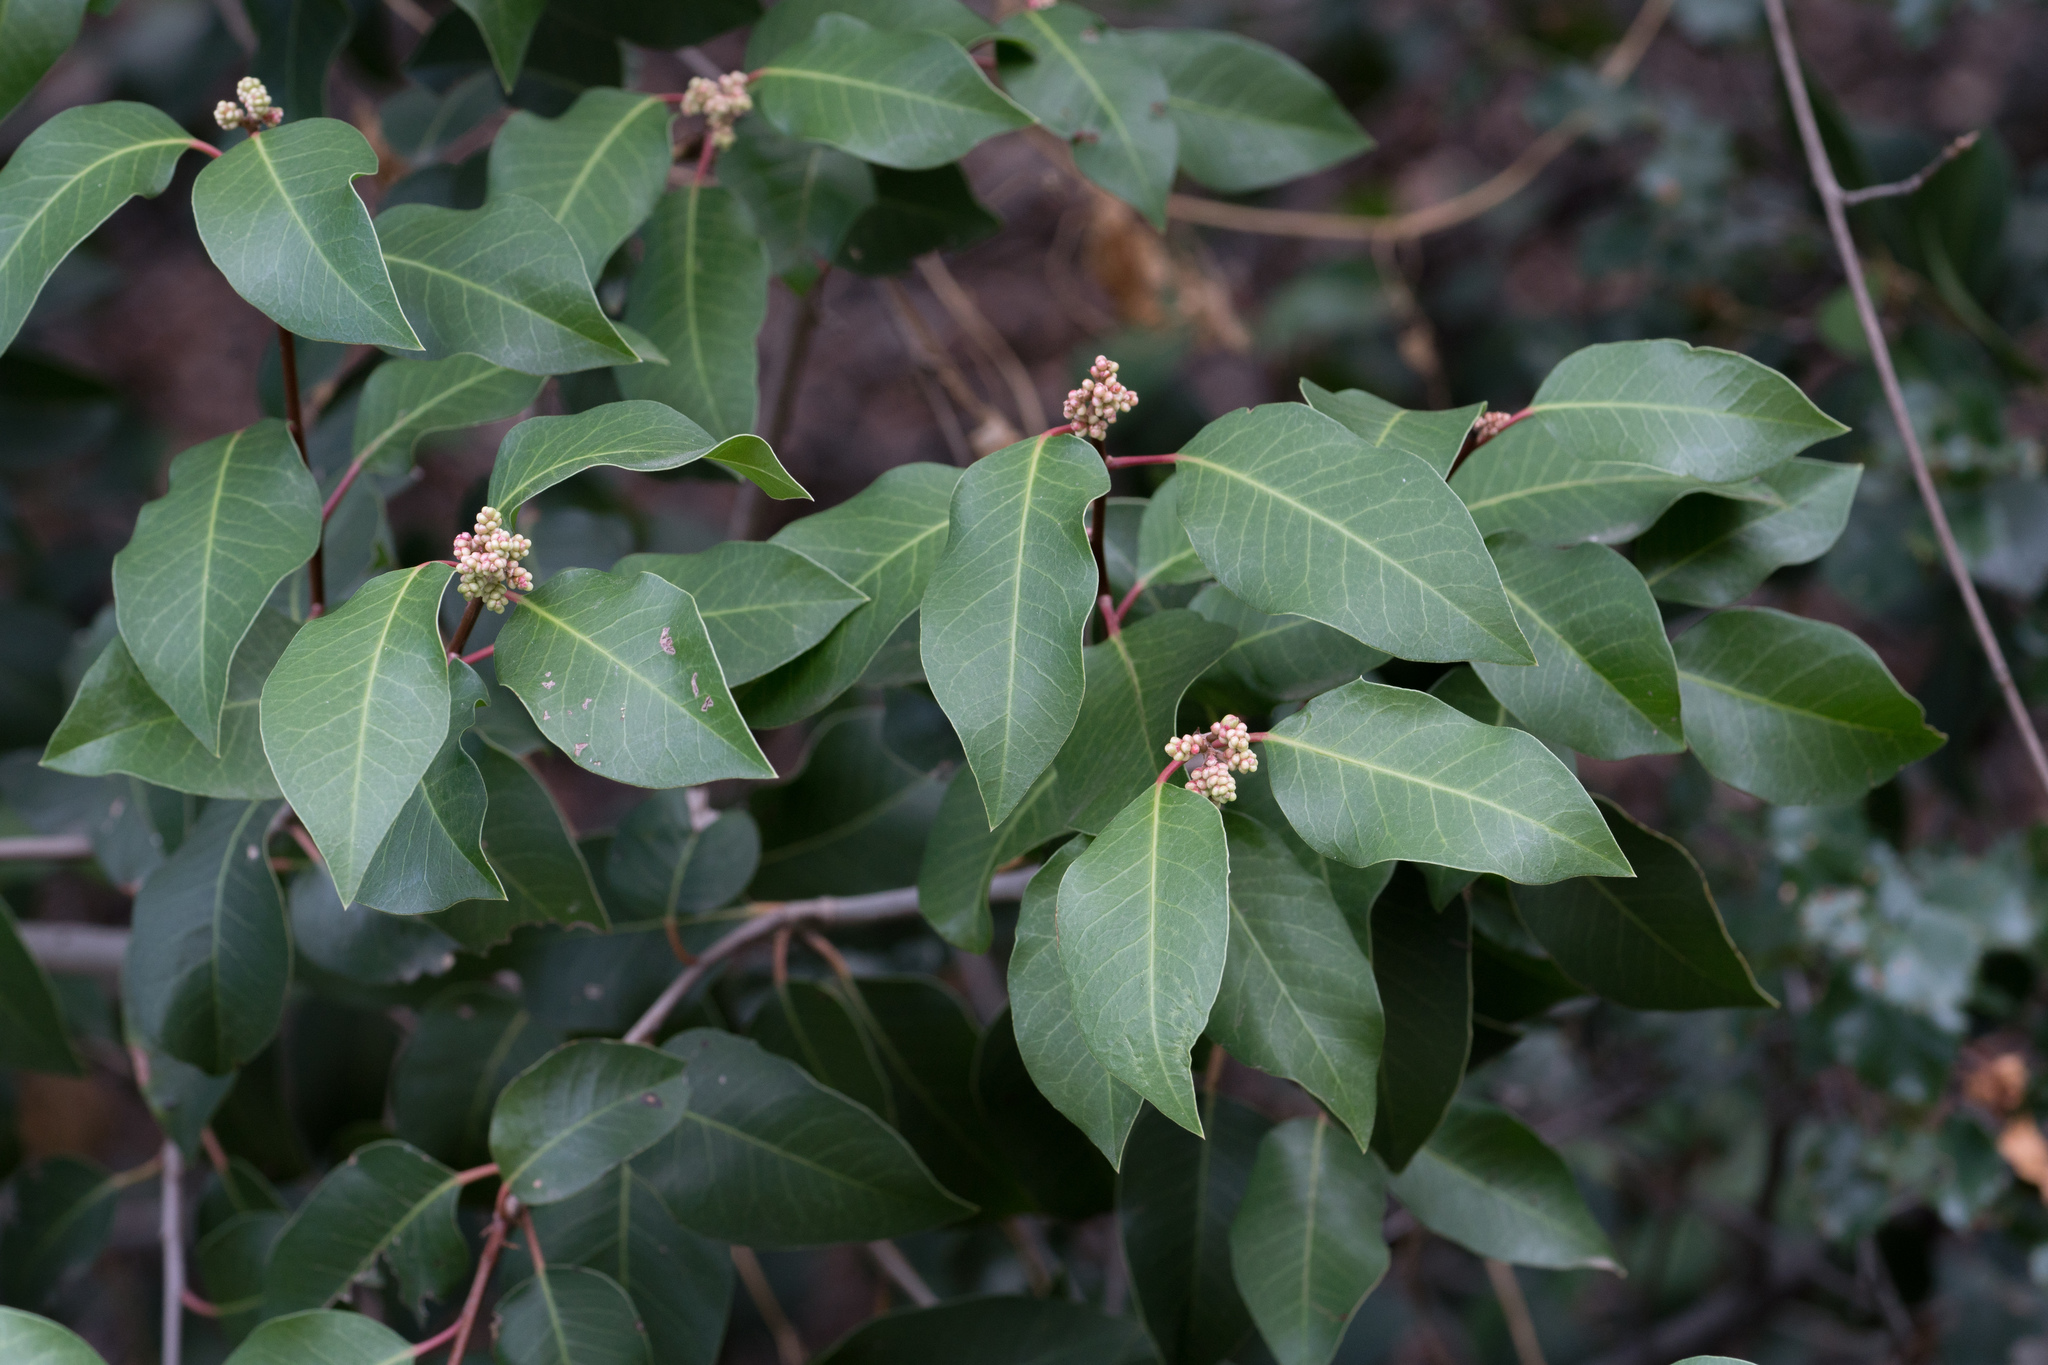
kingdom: Plantae
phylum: Tracheophyta
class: Magnoliopsida
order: Sapindales
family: Anacardiaceae
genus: Rhus
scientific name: Rhus ovata
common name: Sugar sumac
